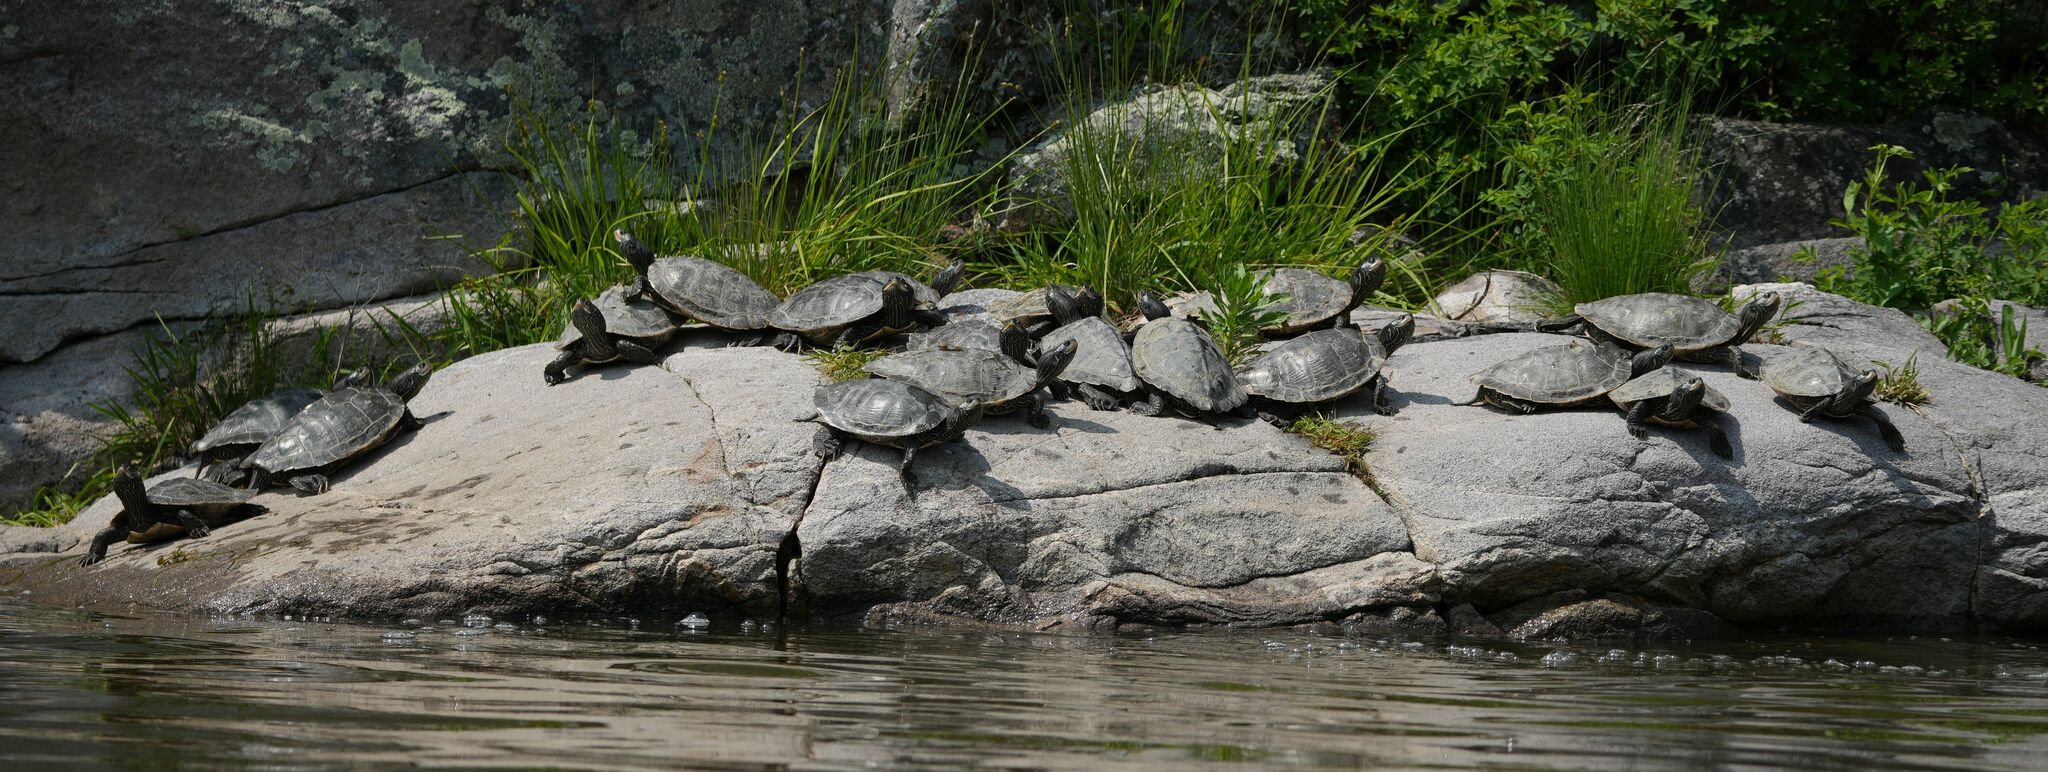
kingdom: Animalia
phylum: Chordata
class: Testudines
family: Emydidae
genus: Graptemys
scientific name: Graptemys geographica
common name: Common map turtle
